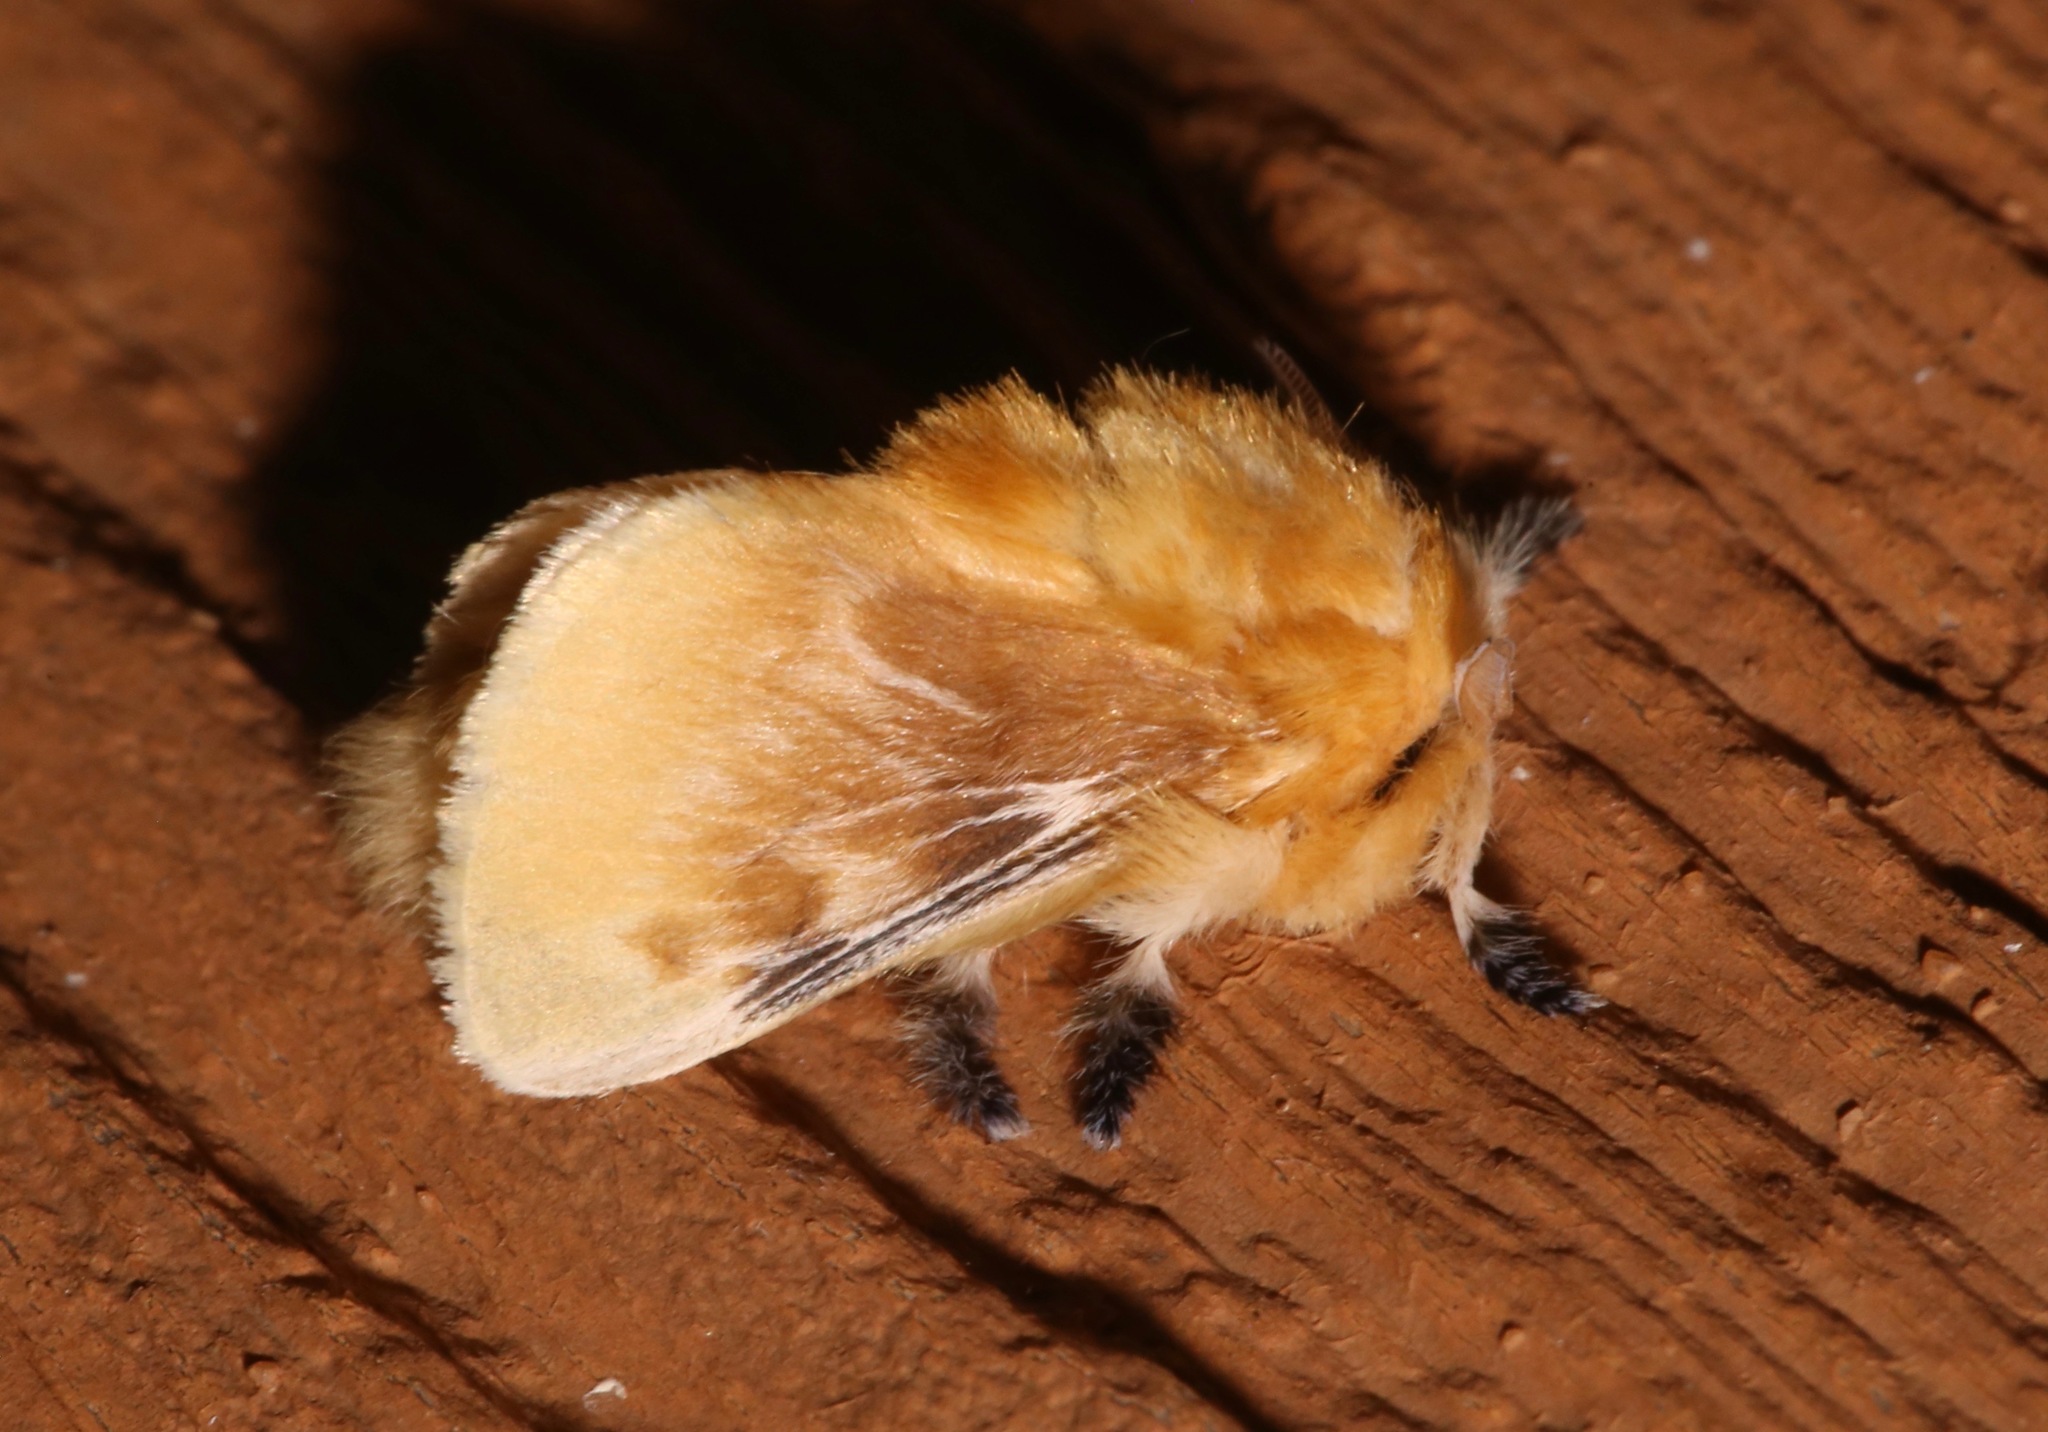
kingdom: Animalia
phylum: Arthropoda
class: Insecta
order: Lepidoptera
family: Megalopygidae
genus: Megalopyge
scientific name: Megalopyge opercularis
